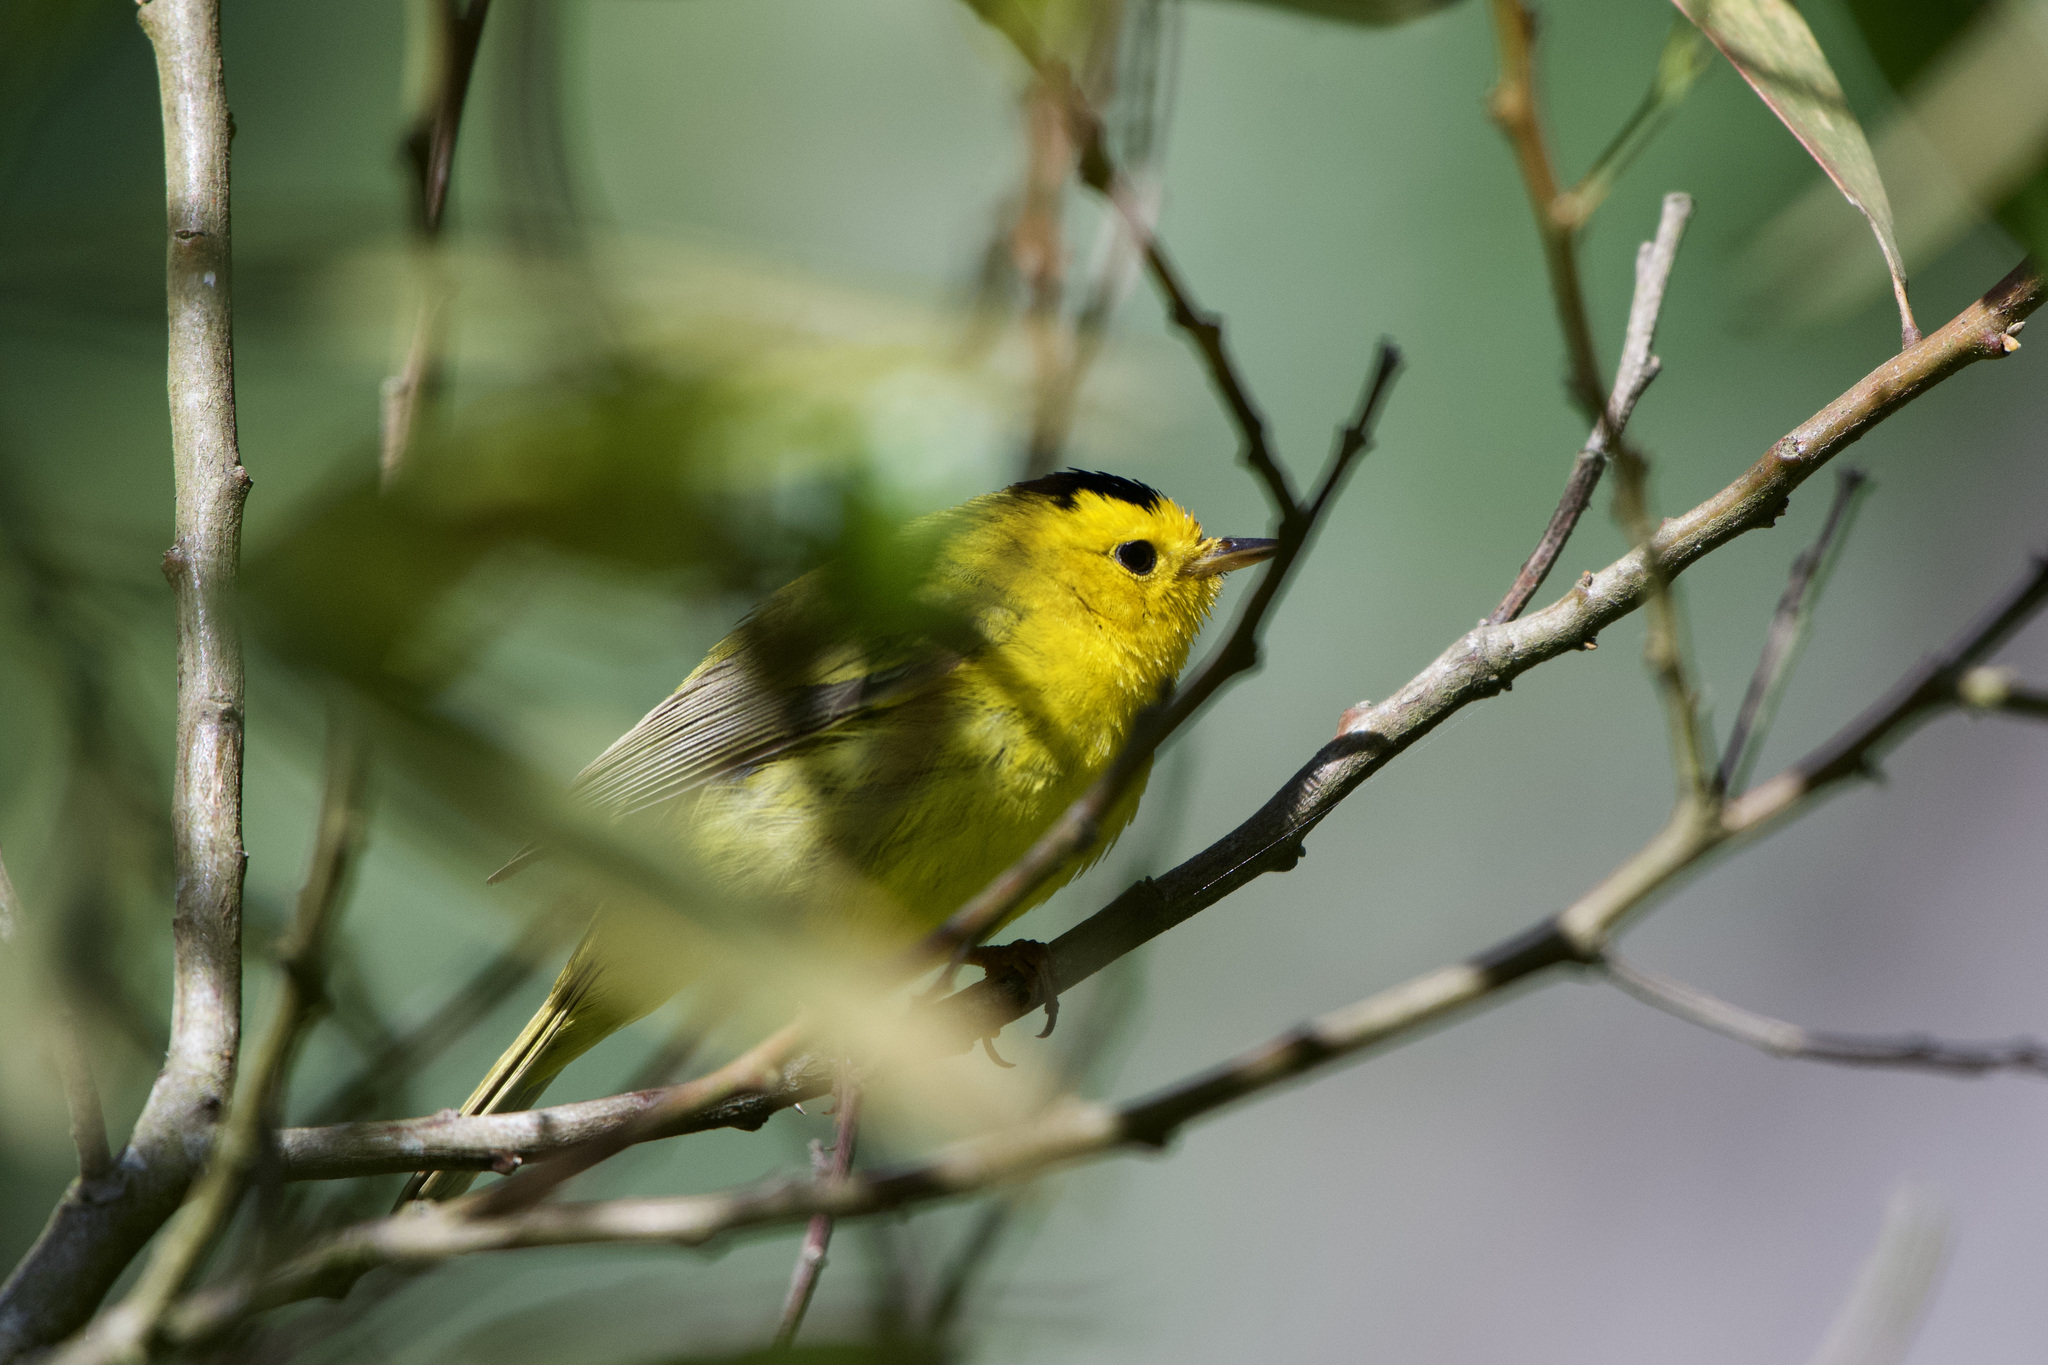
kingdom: Animalia
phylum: Chordata
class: Aves
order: Passeriformes
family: Parulidae
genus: Cardellina
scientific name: Cardellina pusilla
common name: Wilson's warbler
